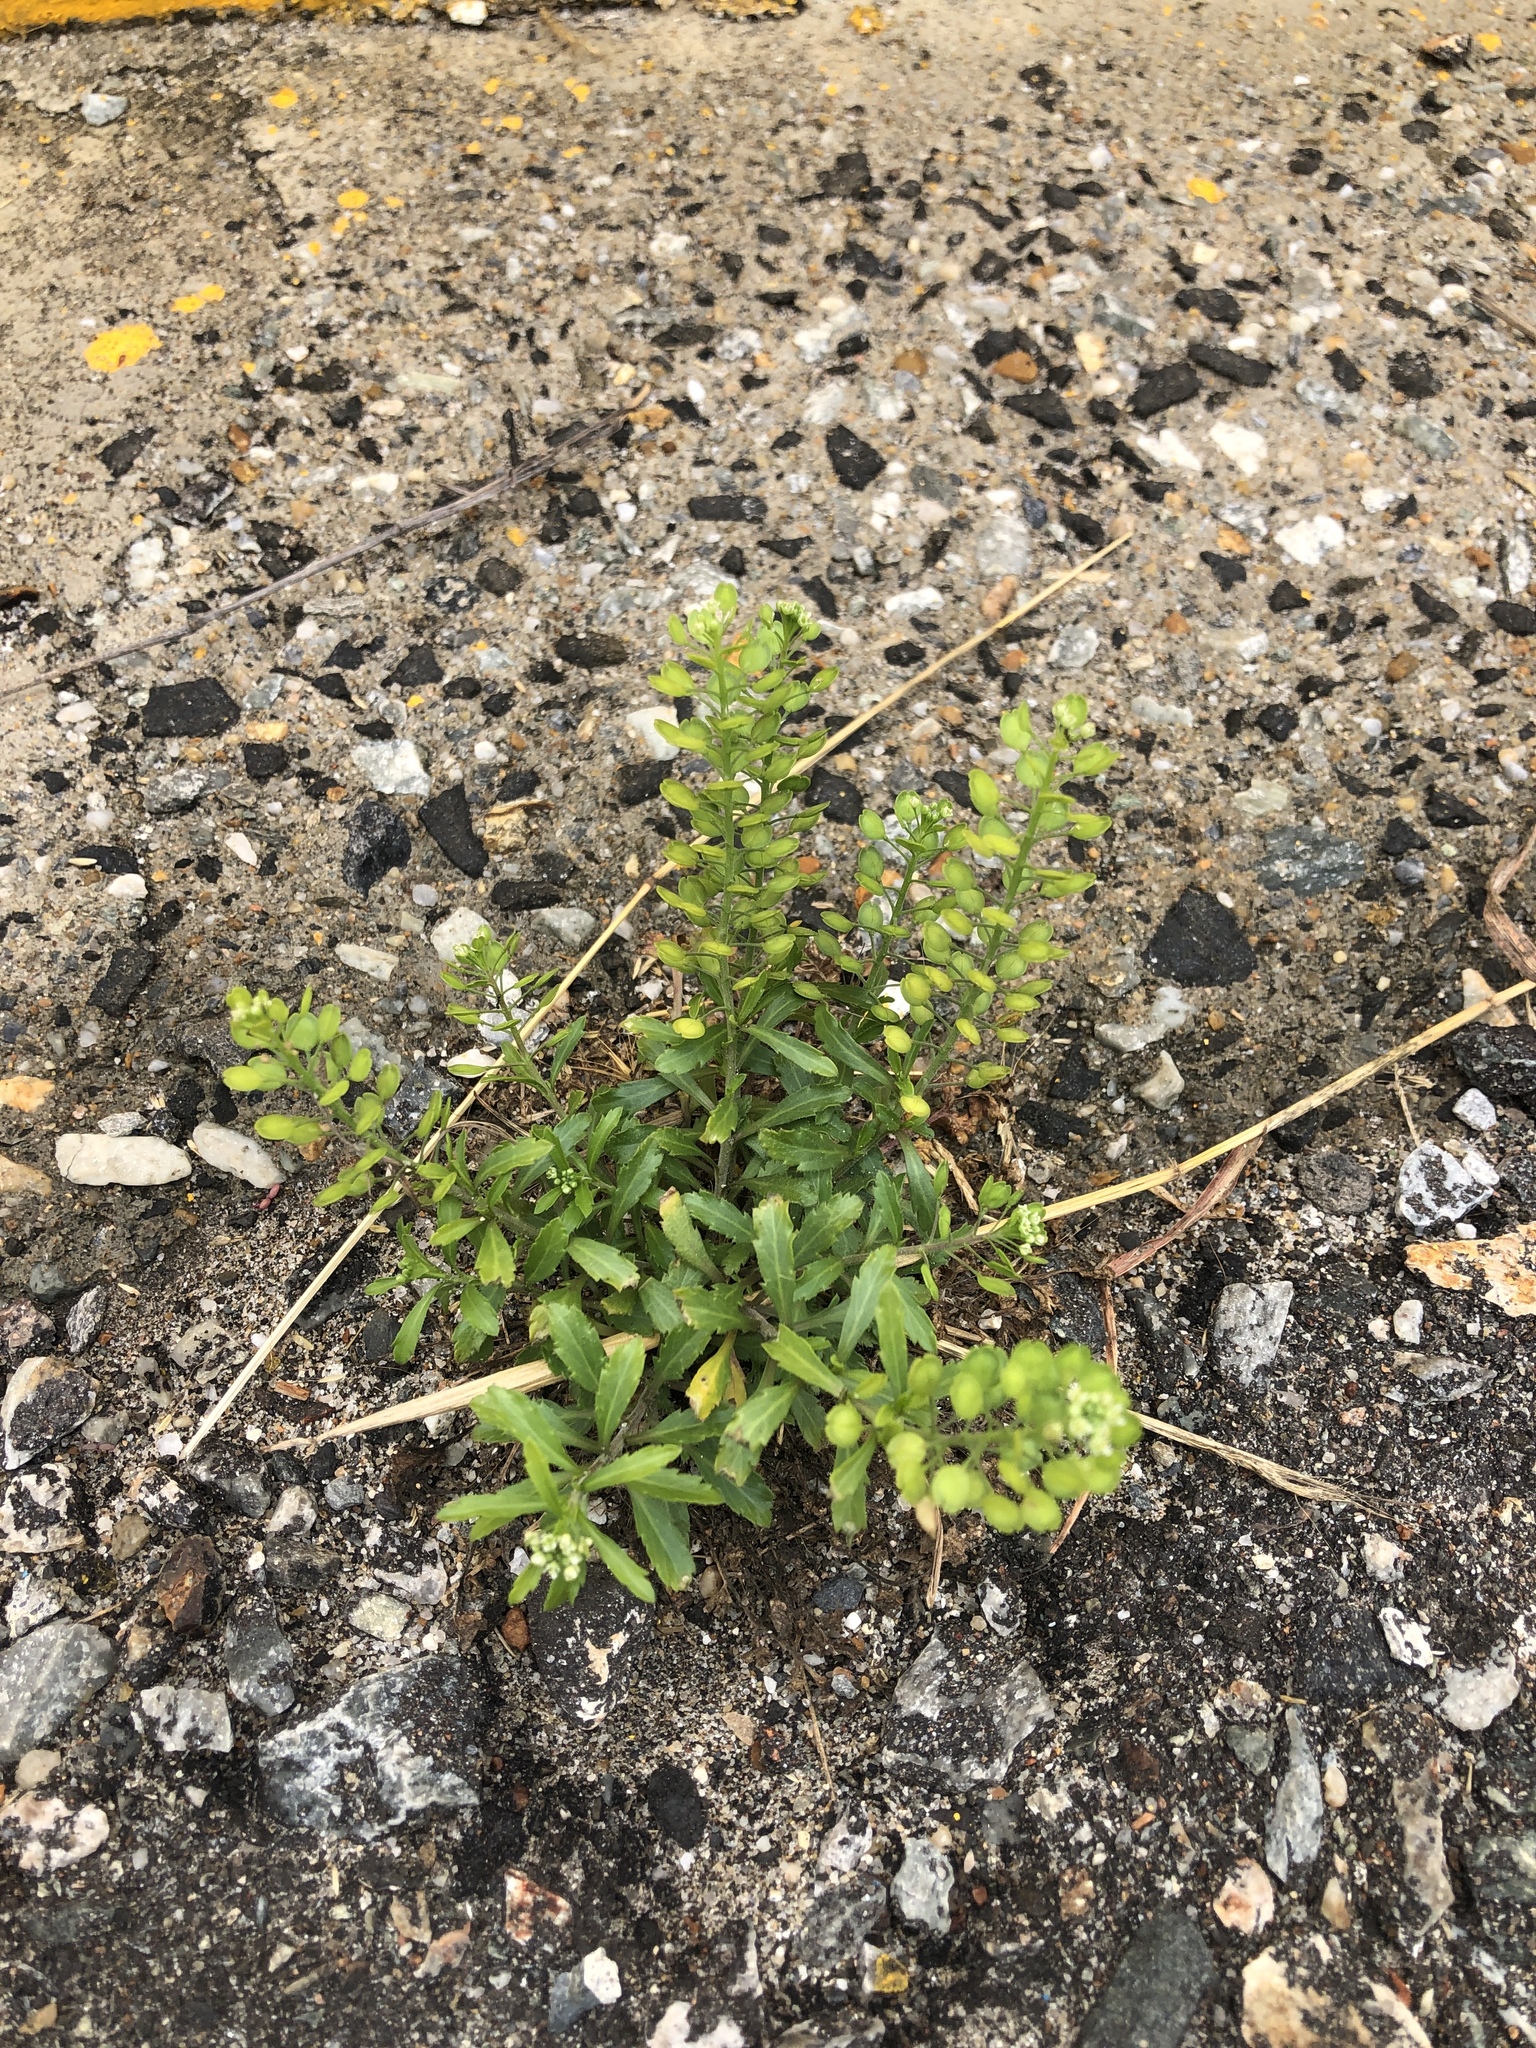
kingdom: Plantae
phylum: Tracheophyta
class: Magnoliopsida
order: Brassicales
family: Brassicaceae
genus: Lepidium
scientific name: Lepidium virginicum
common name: Least pepperwort
